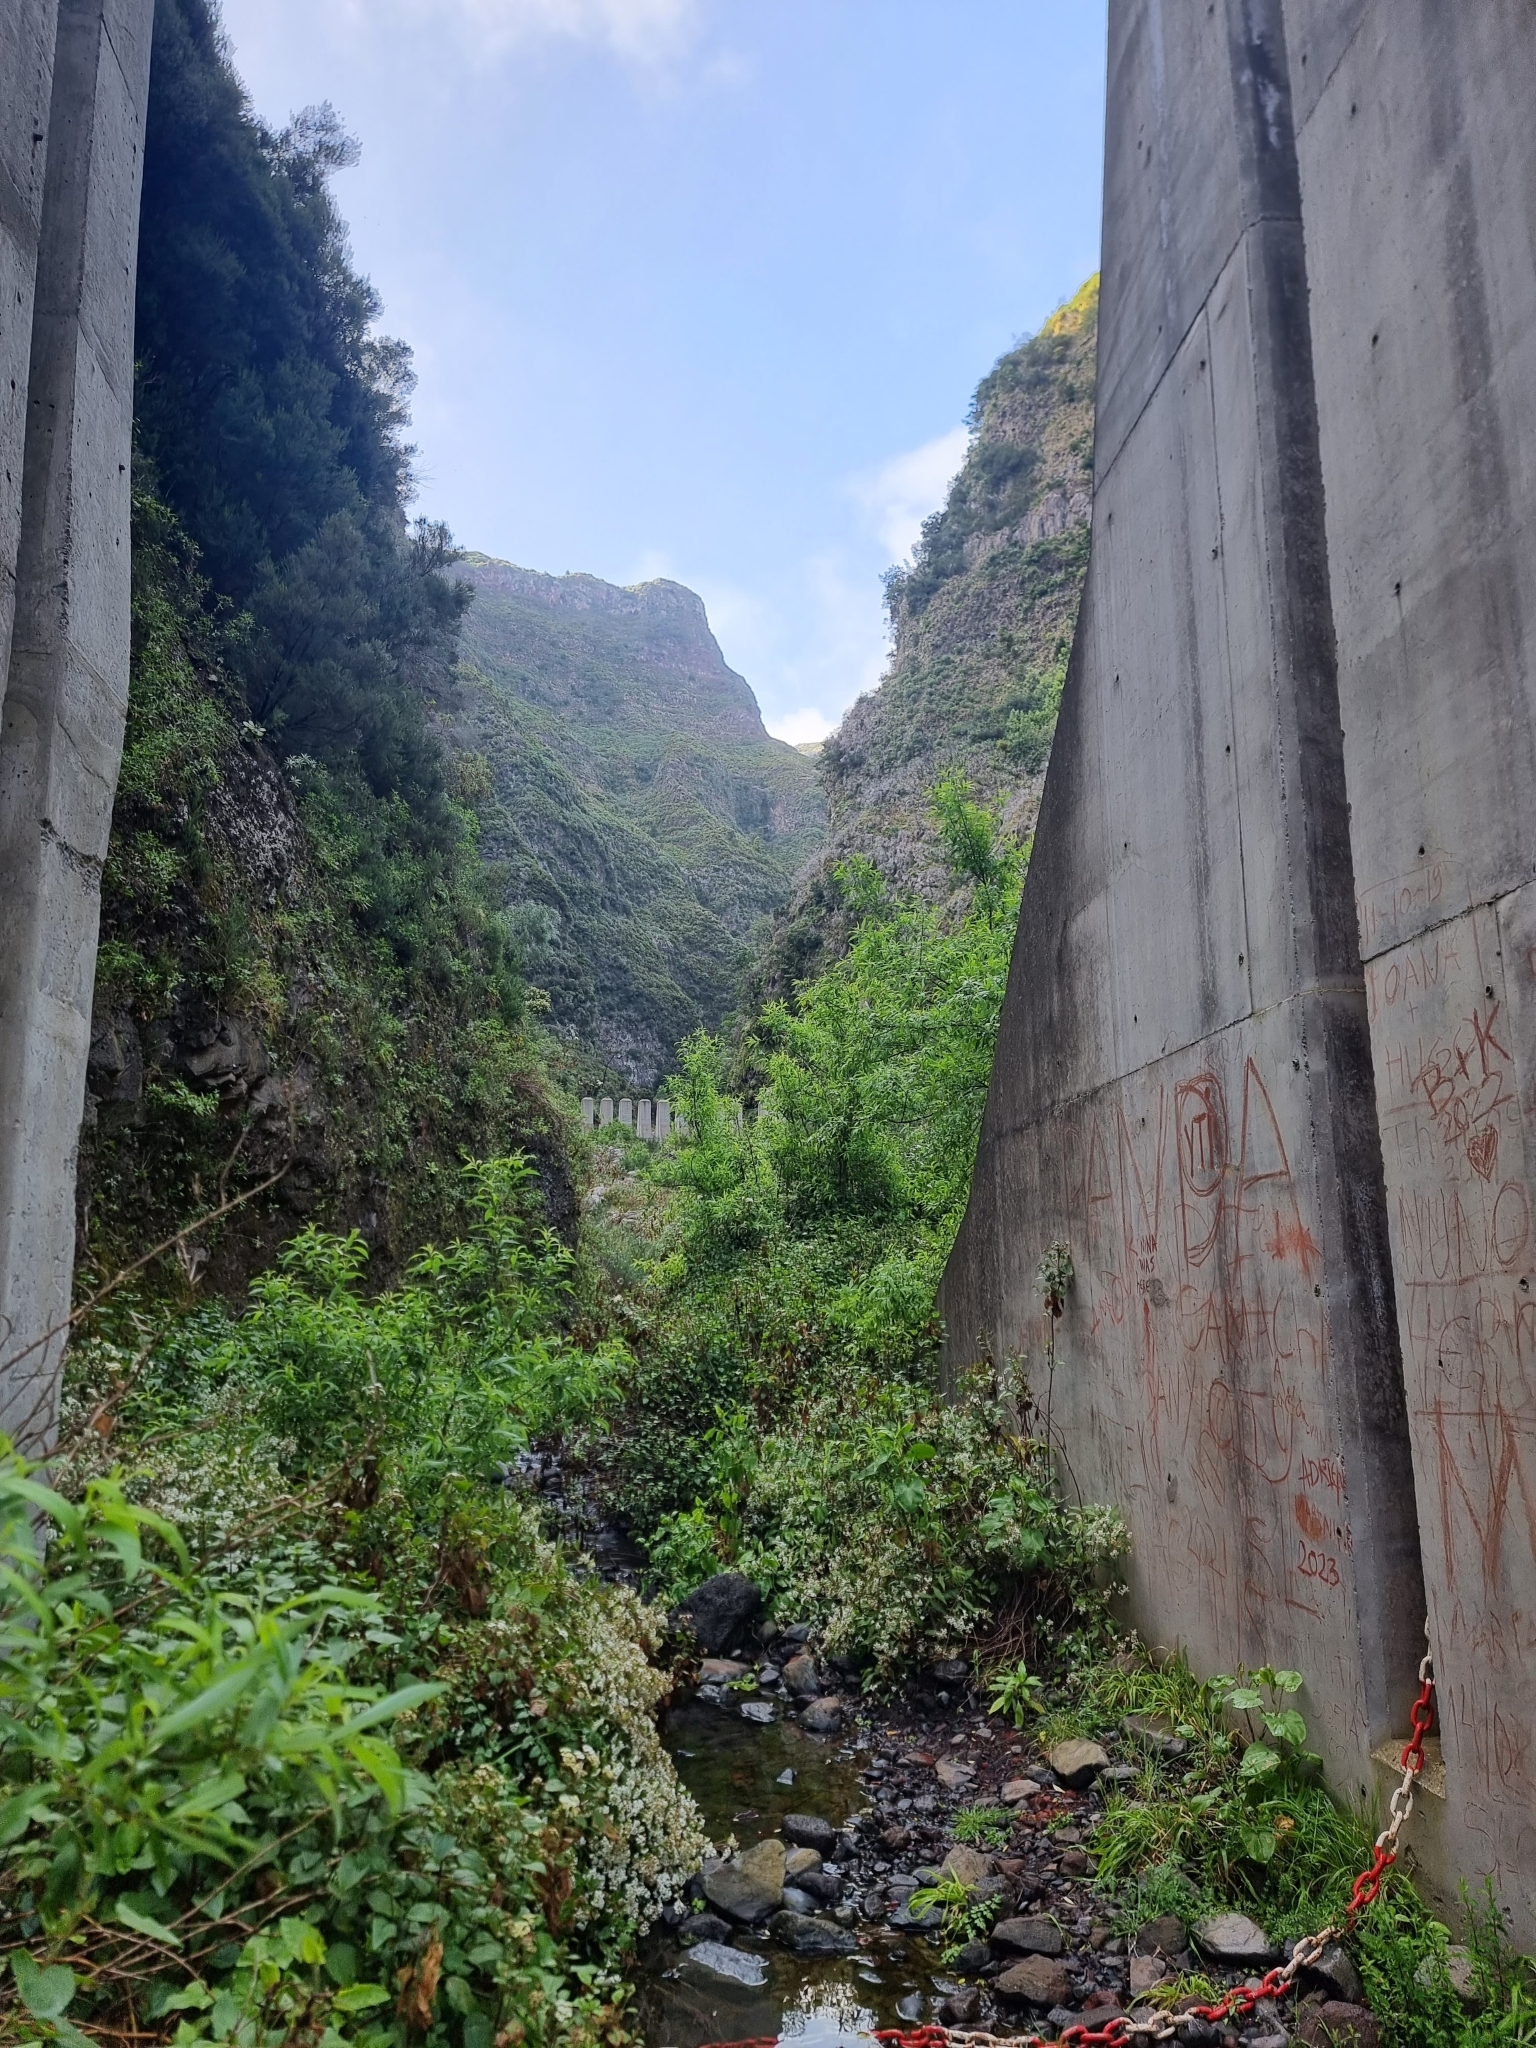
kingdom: Plantae
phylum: Tracheophyta
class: Magnoliopsida
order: Malpighiales
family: Salicaceae
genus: Salix
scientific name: Salix canariensis
